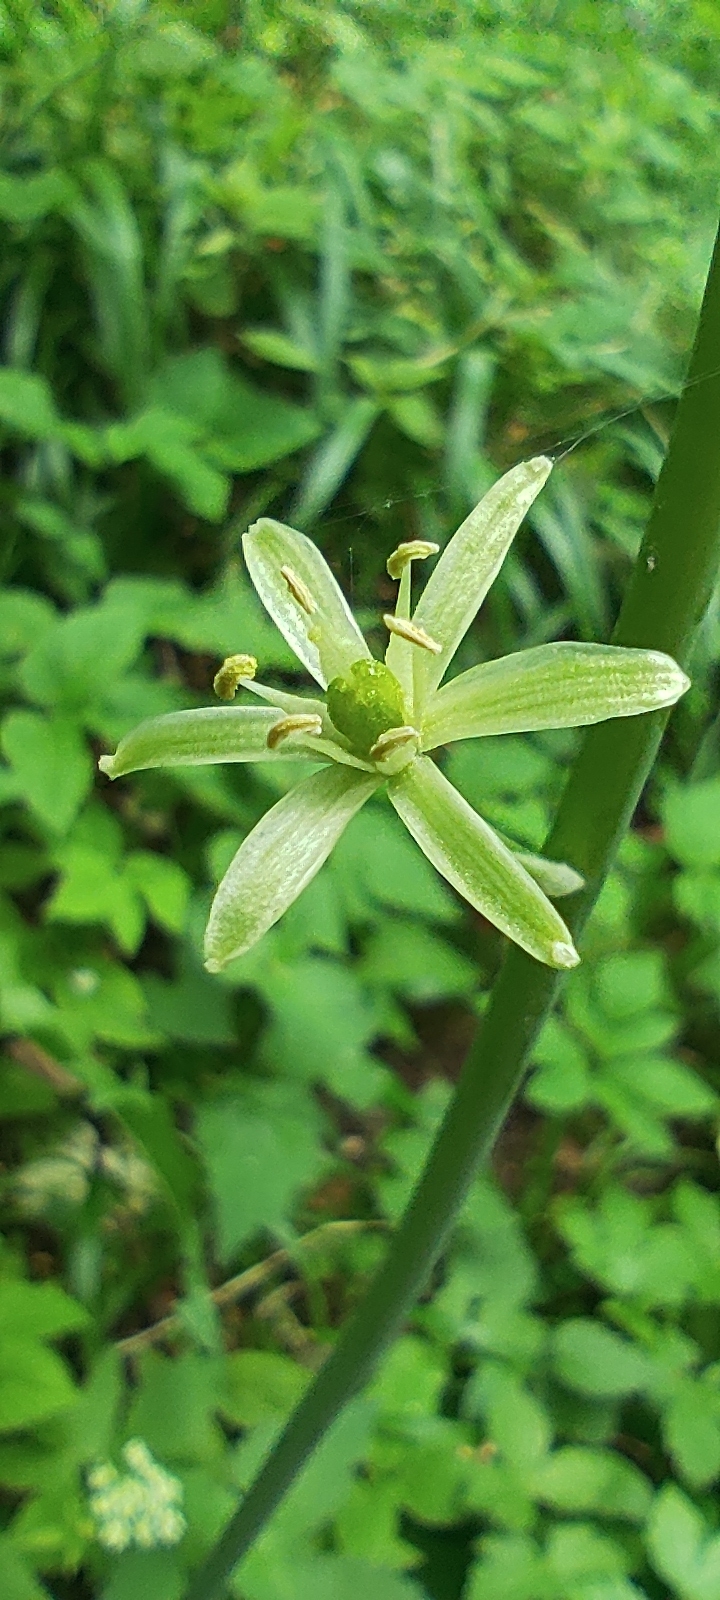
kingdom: Plantae
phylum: Tracheophyta
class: Liliopsida
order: Asparagales
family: Asparagaceae
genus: Ornithogalum
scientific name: Ornithogalum pyrenaicum
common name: Spiked star-of-bethlehem
